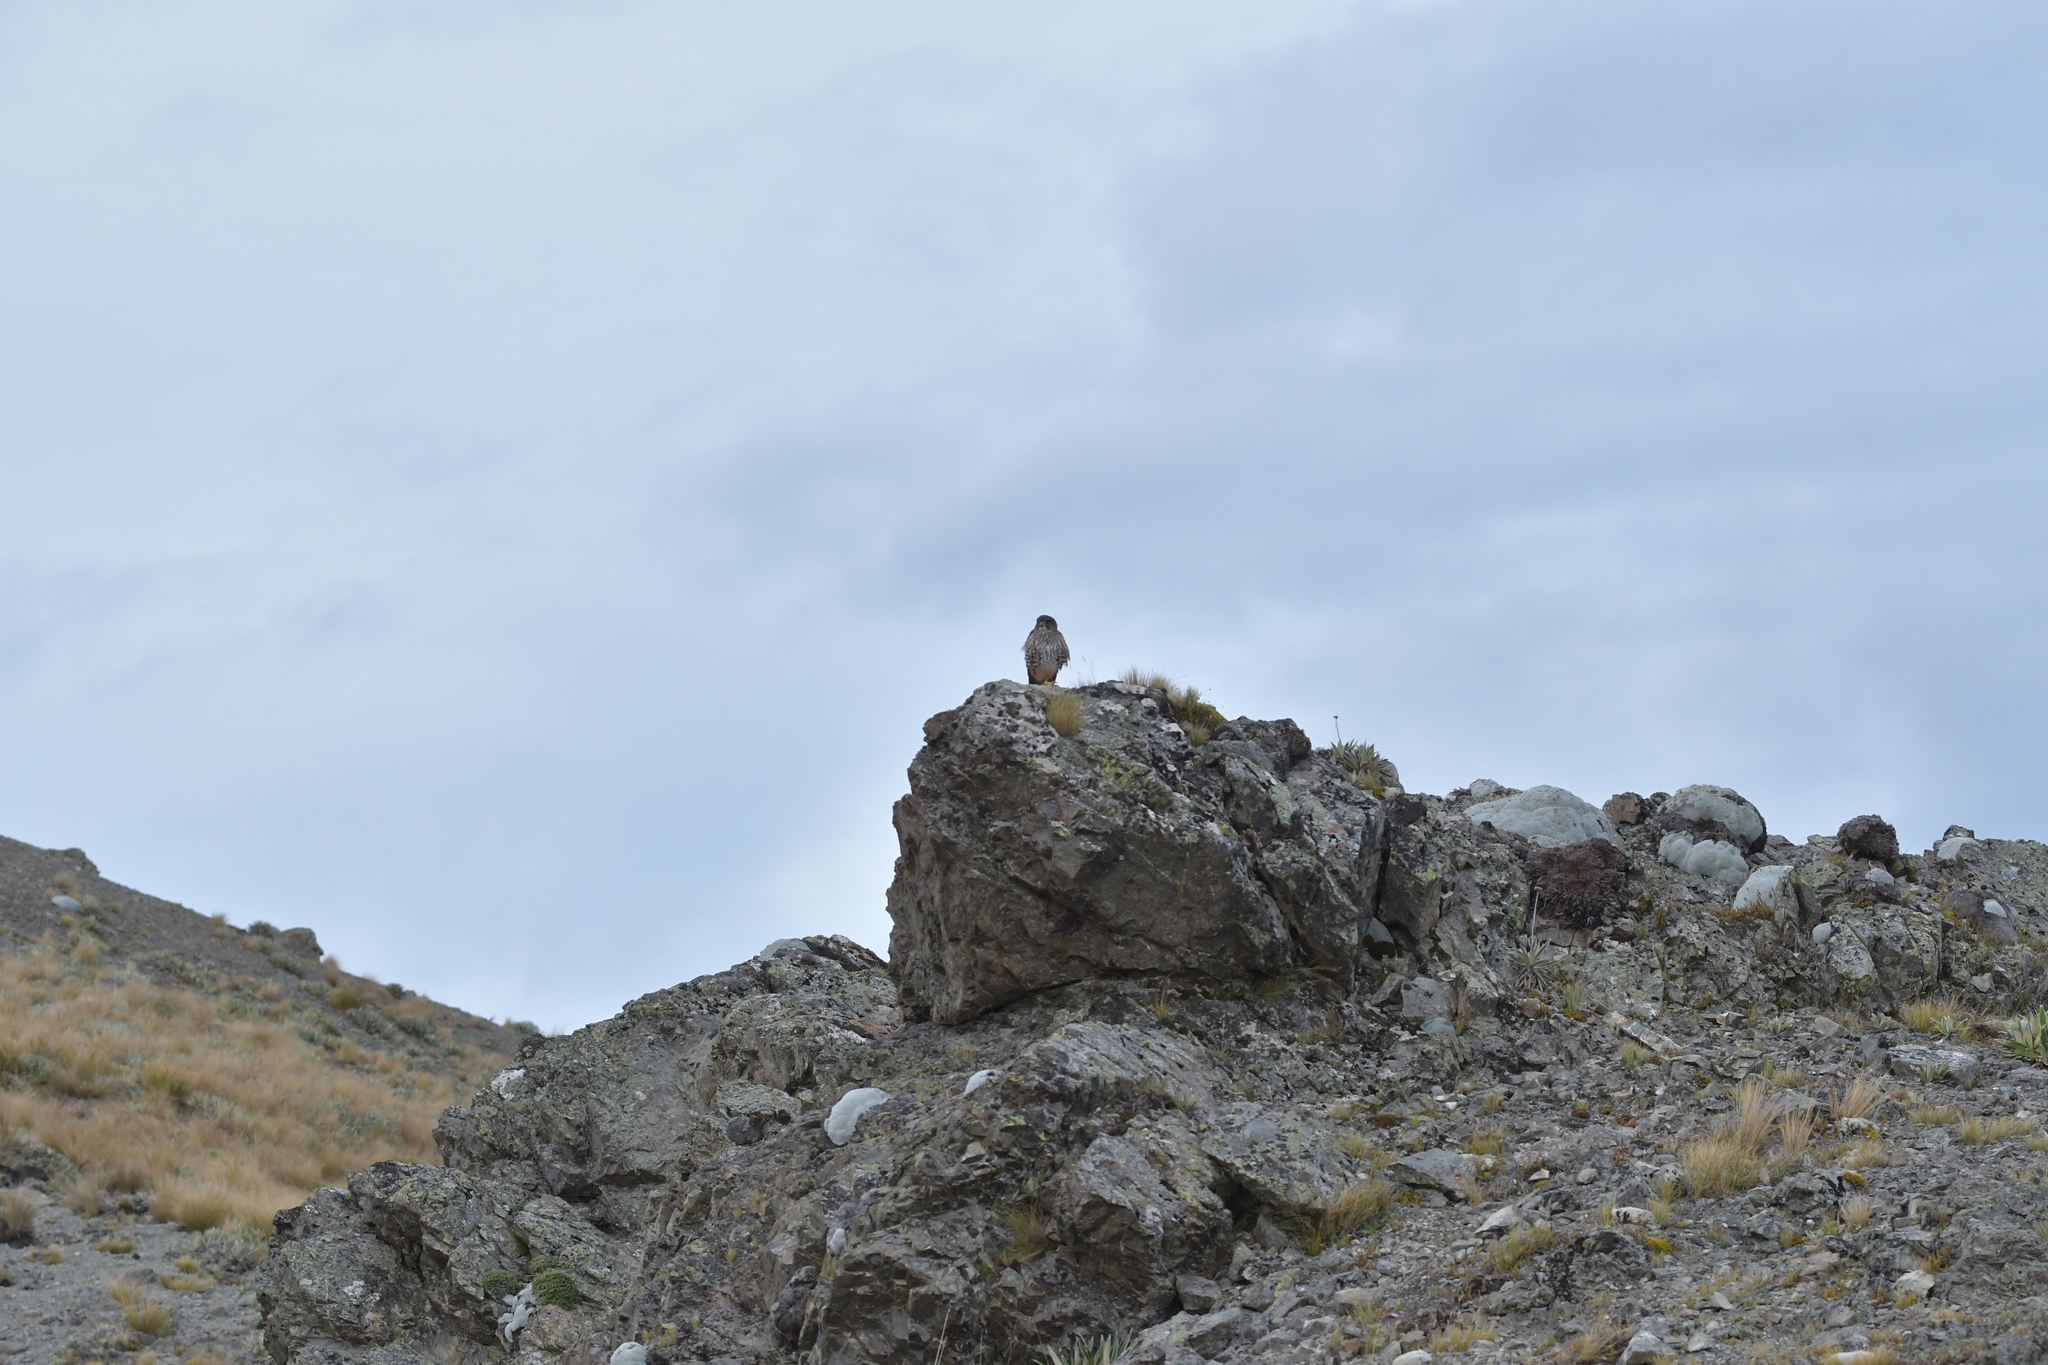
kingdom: Animalia
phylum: Chordata
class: Aves
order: Falconiformes
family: Falconidae
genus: Falco
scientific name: Falco novaeseelandiae
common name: New zealand falcon
